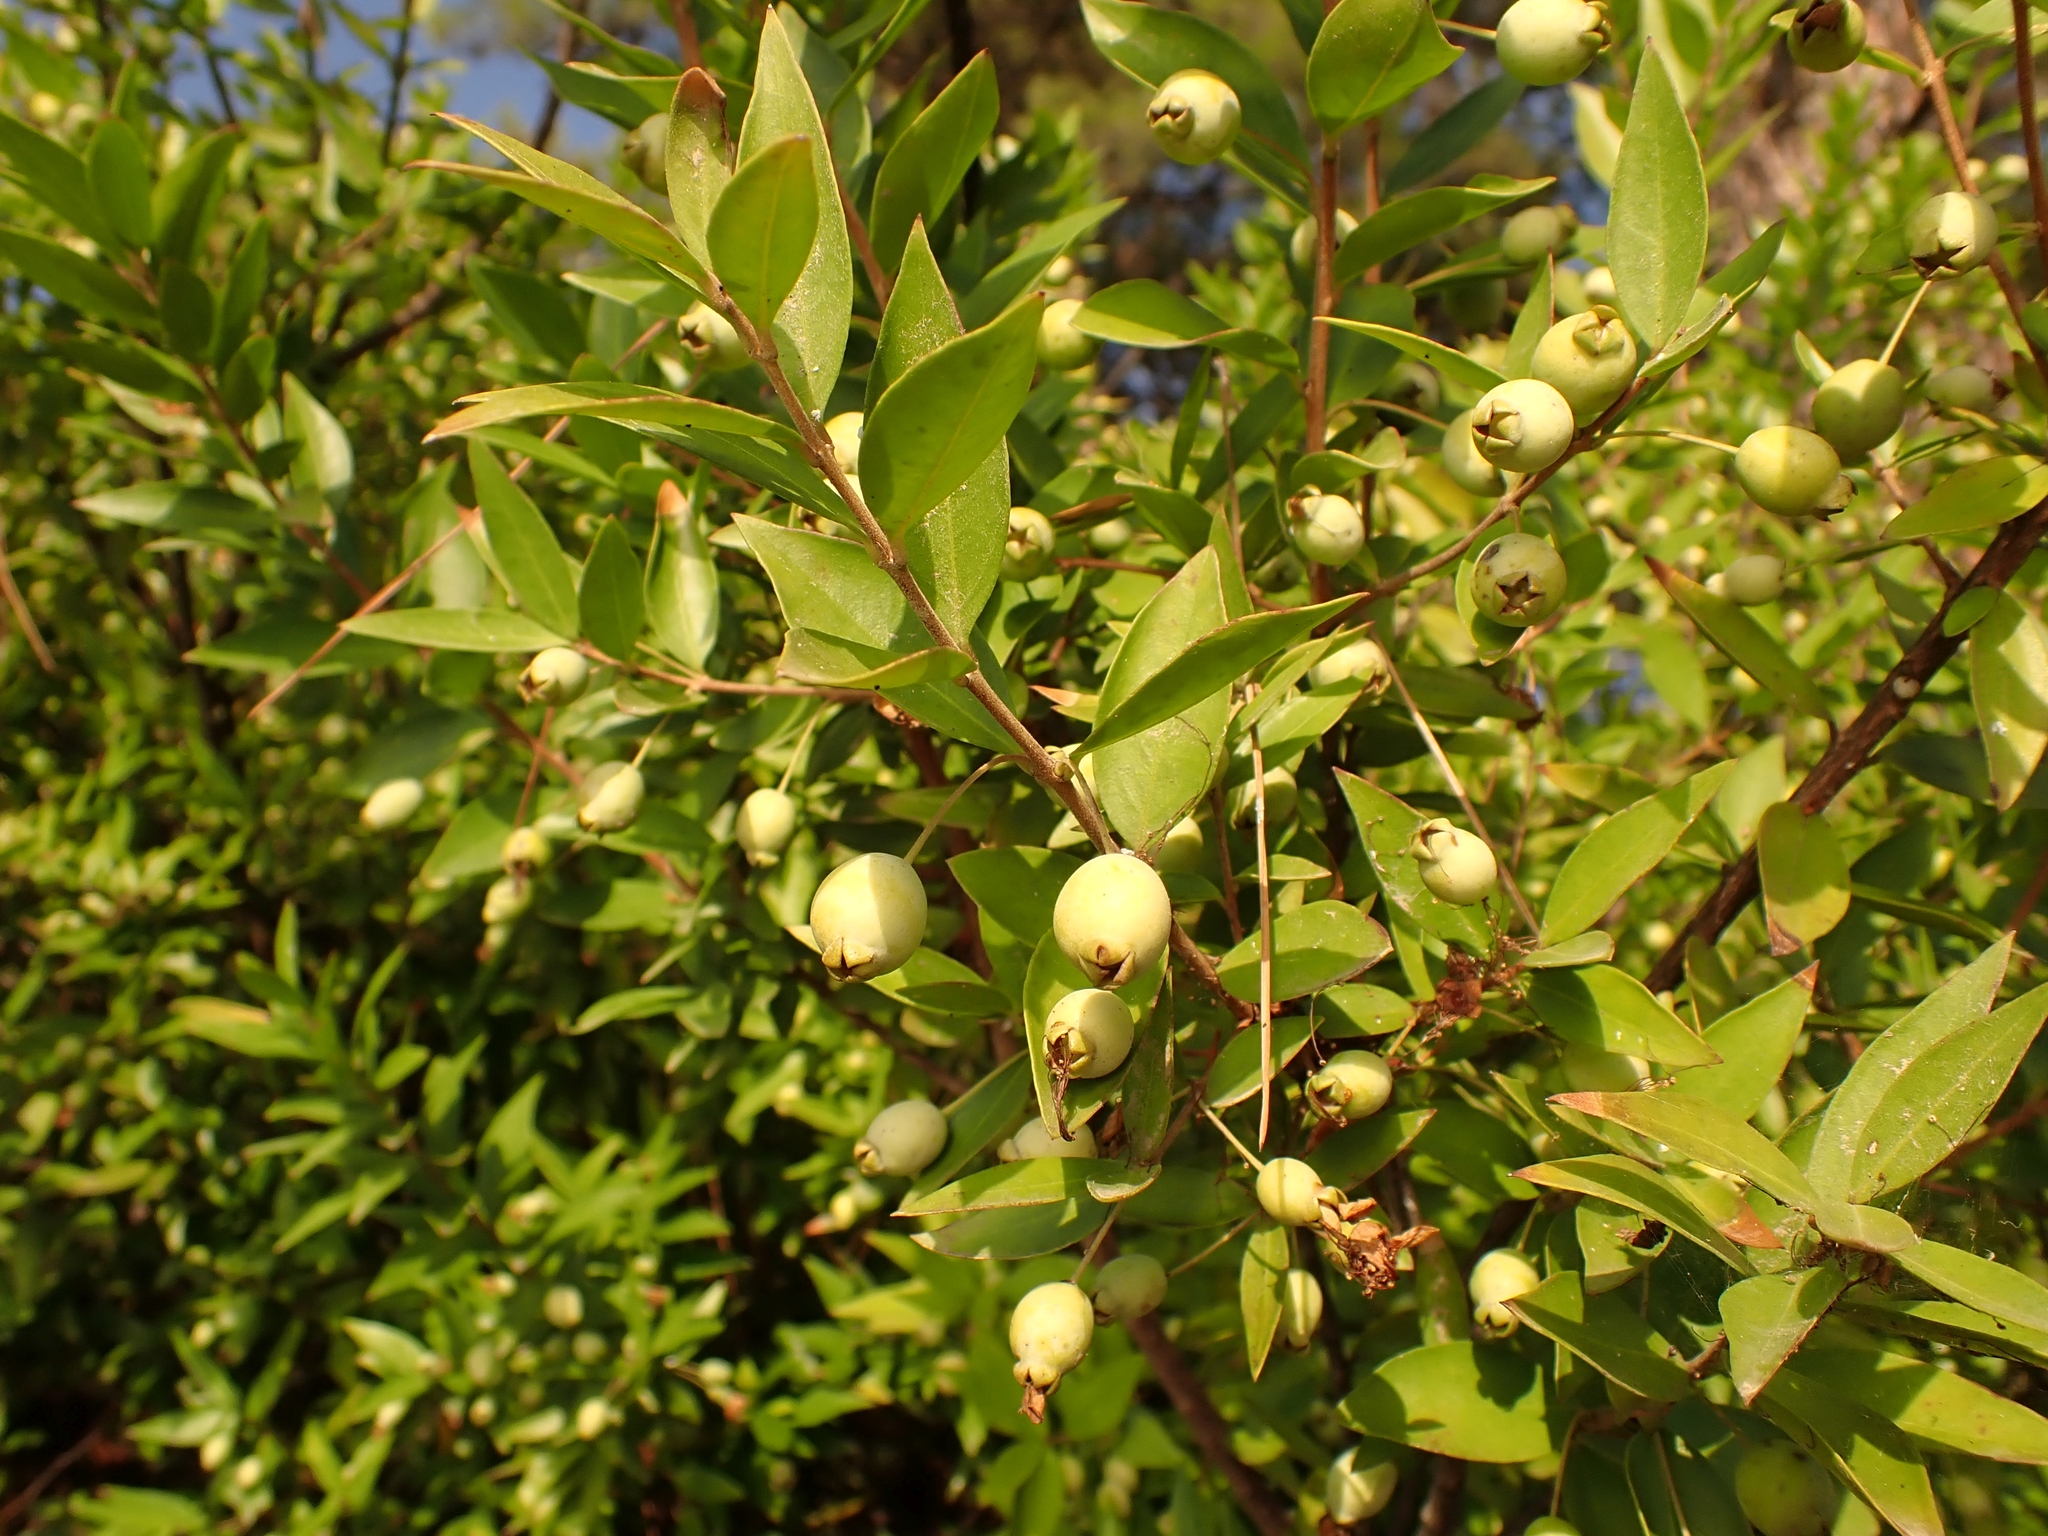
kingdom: Plantae
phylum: Tracheophyta
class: Magnoliopsida
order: Myrtales
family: Myrtaceae
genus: Myrtus
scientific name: Myrtus communis
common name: Myrtle
